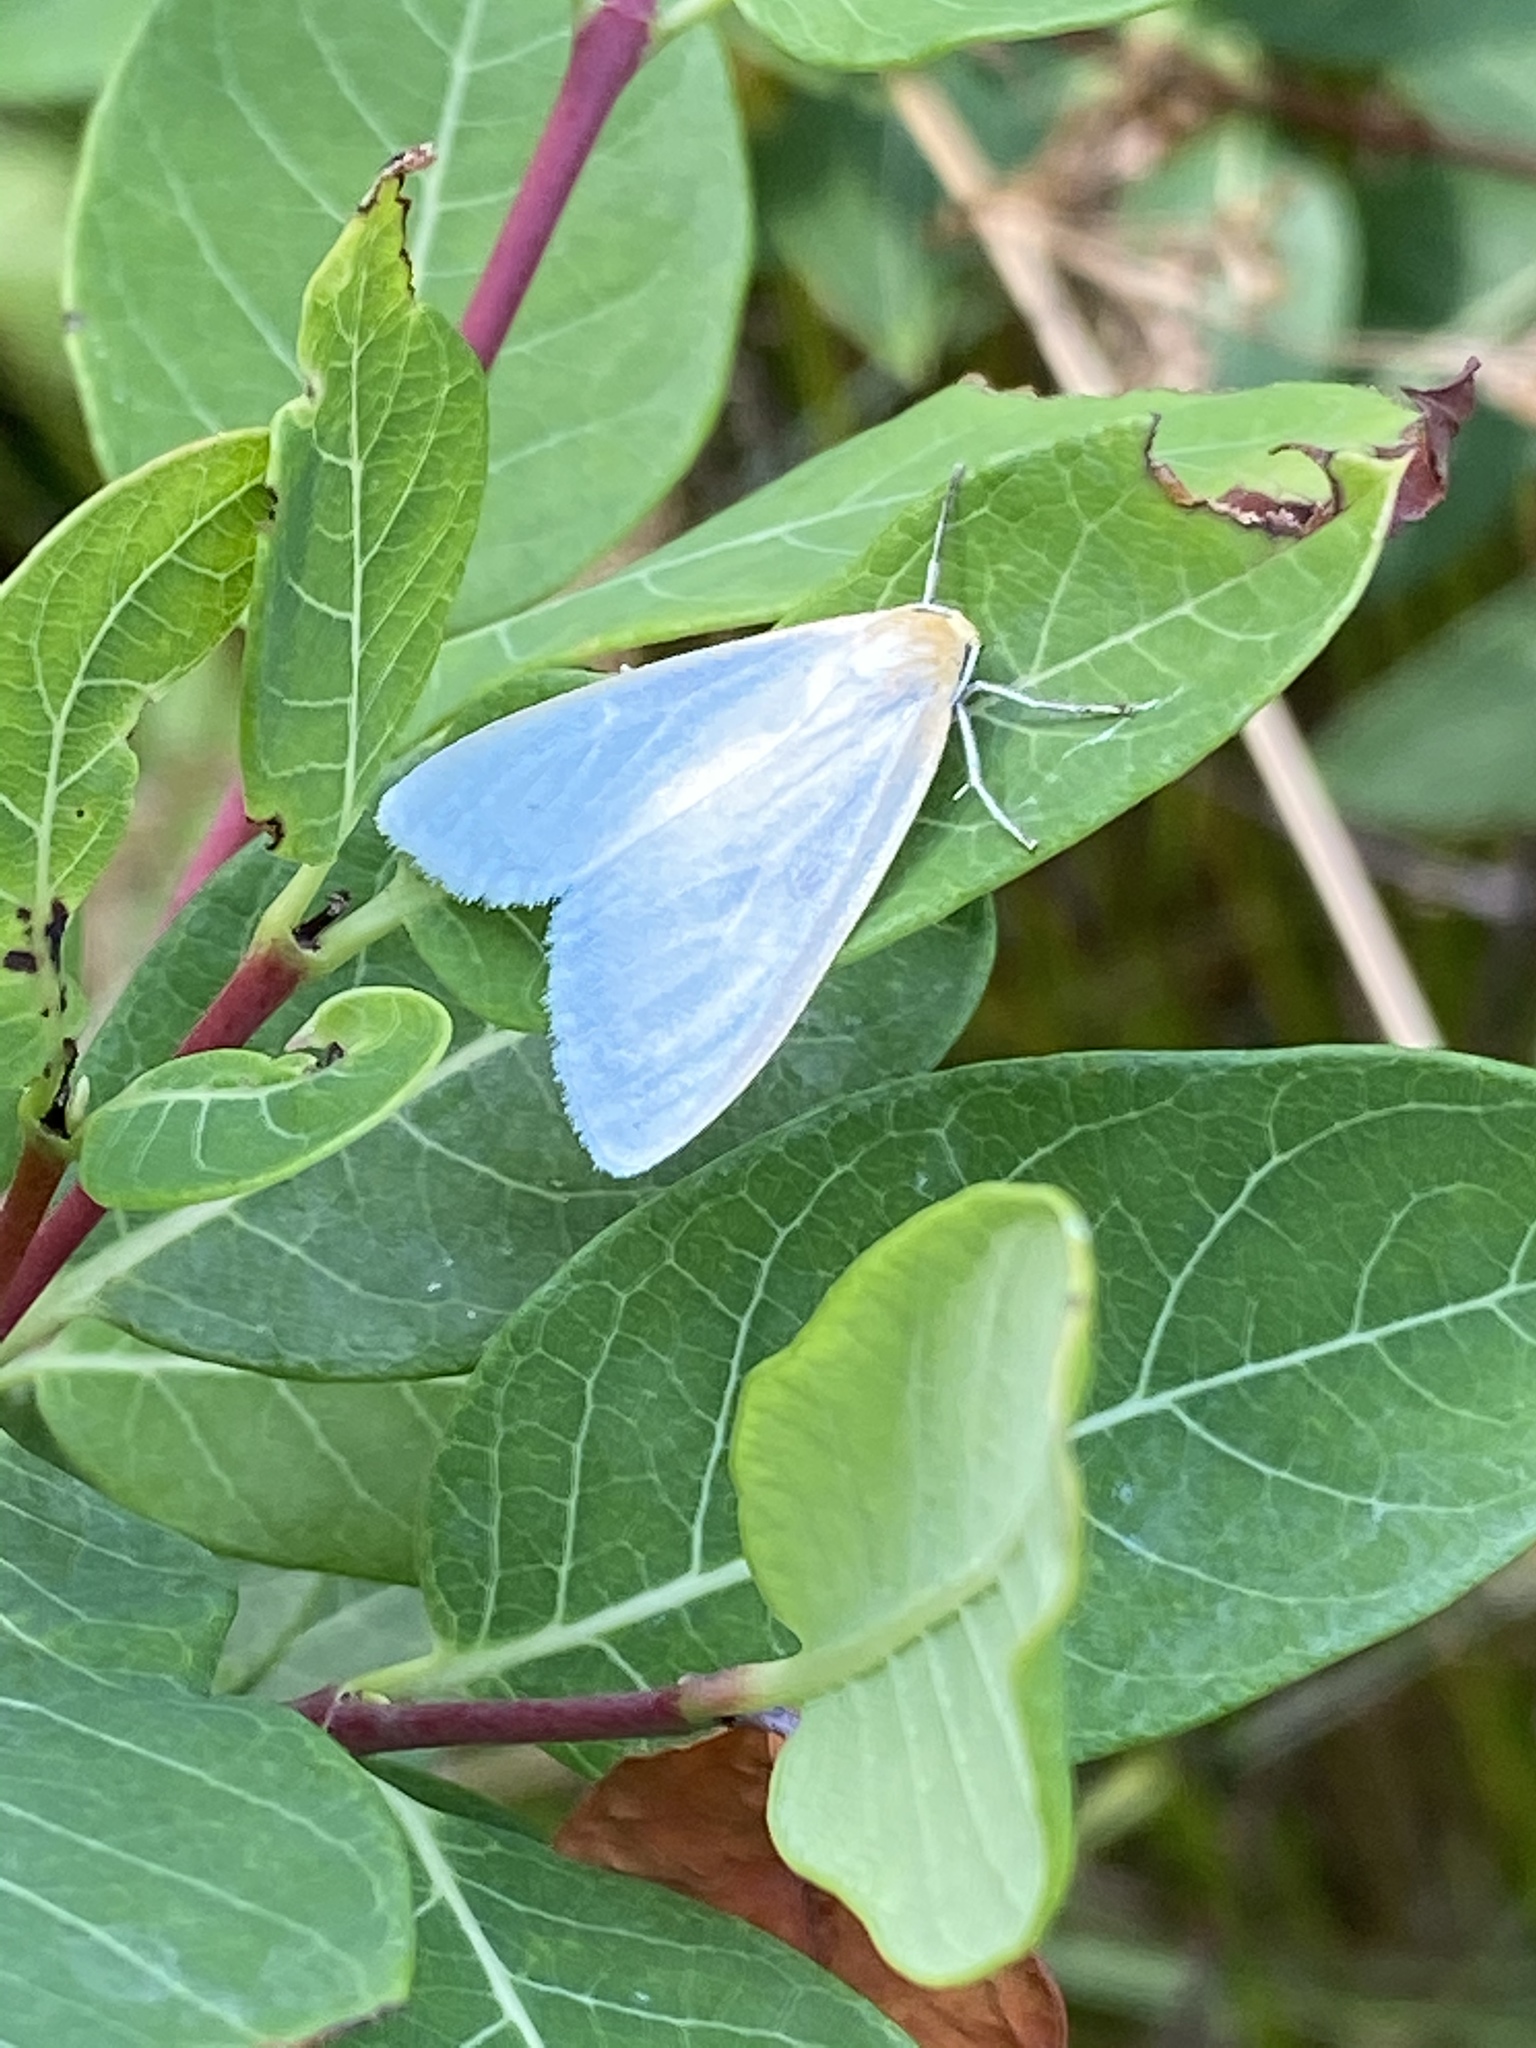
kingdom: Animalia
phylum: Arthropoda
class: Insecta
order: Lepidoptera
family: Erebidae
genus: Cycnia
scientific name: Cycnia tenera
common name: Delicate cycnia moth
